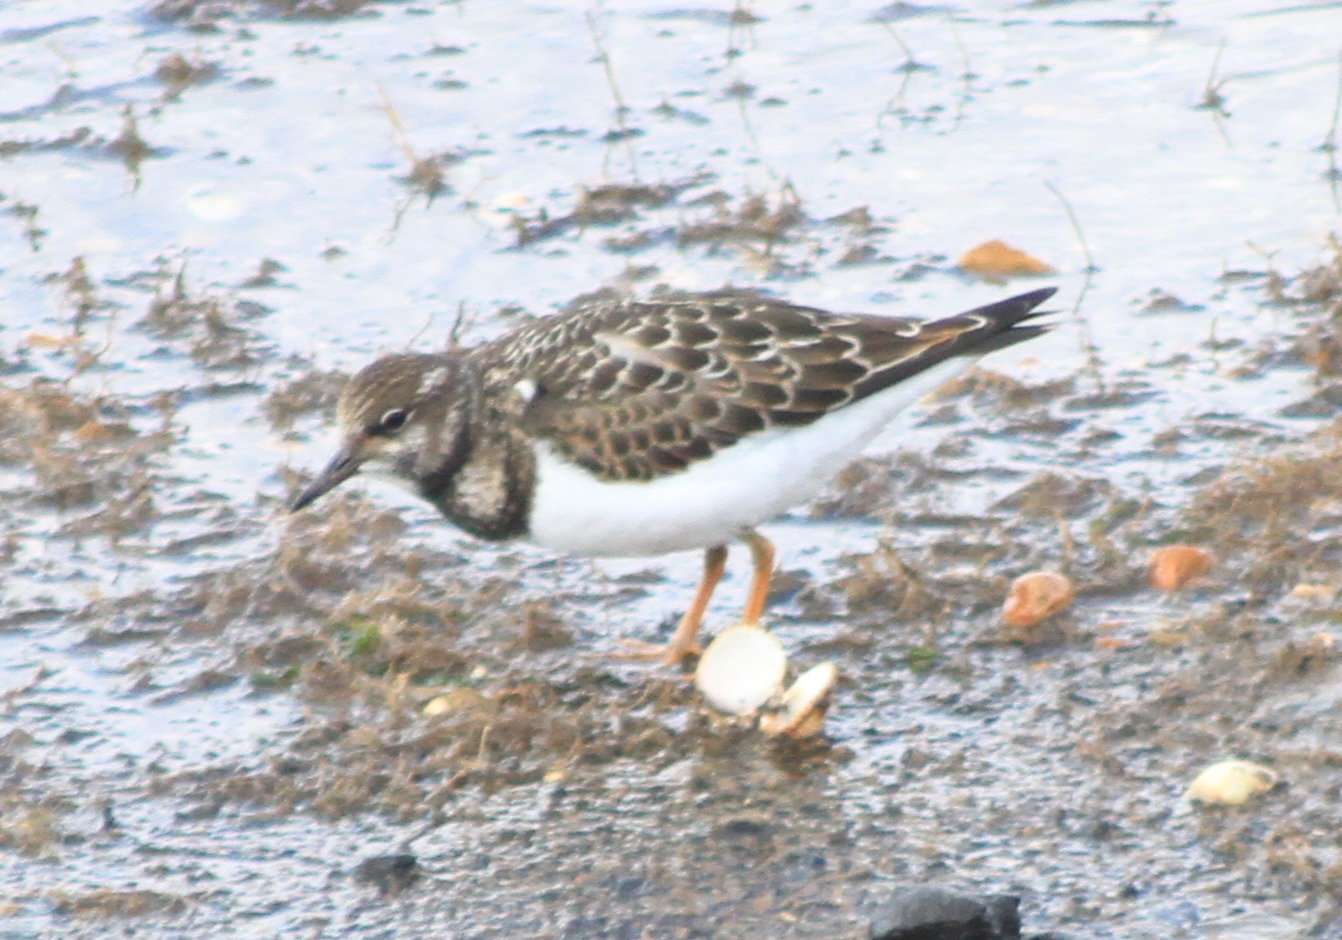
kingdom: Animalia
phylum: Chordata
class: Aves
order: Charadriiformes
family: Scolopacidae
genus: Arenaria
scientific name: Arenaria interpres
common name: Ruddy turnstone
